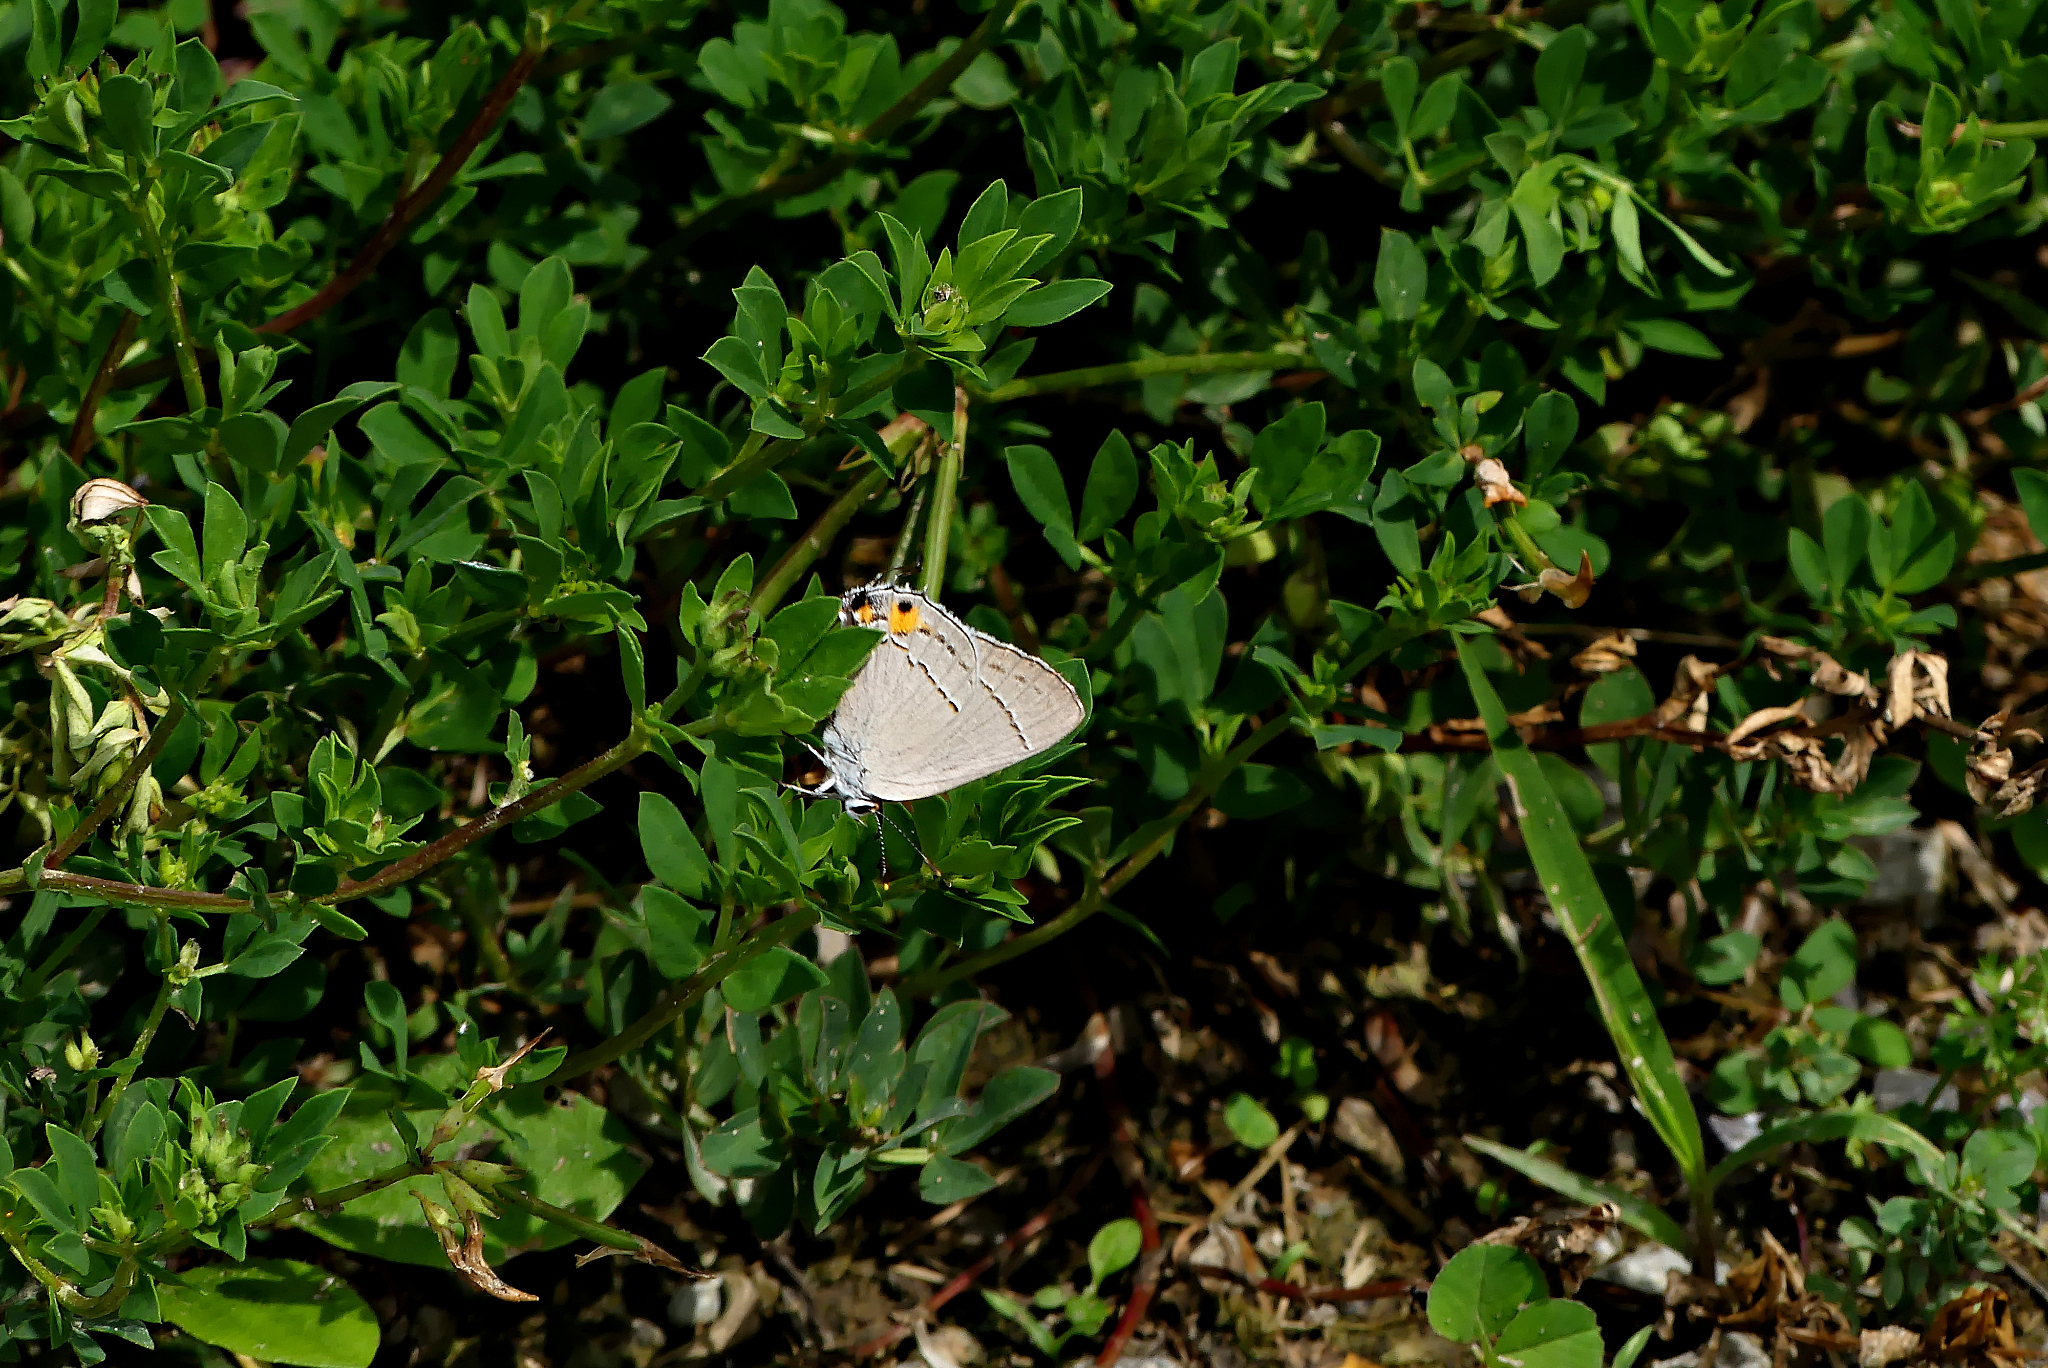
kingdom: Animalia
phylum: Arthropoda
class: Insecta
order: Lepidoptera
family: Lycaenidae
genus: Strymon
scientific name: Strymon melinus
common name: Gray hairstreak
